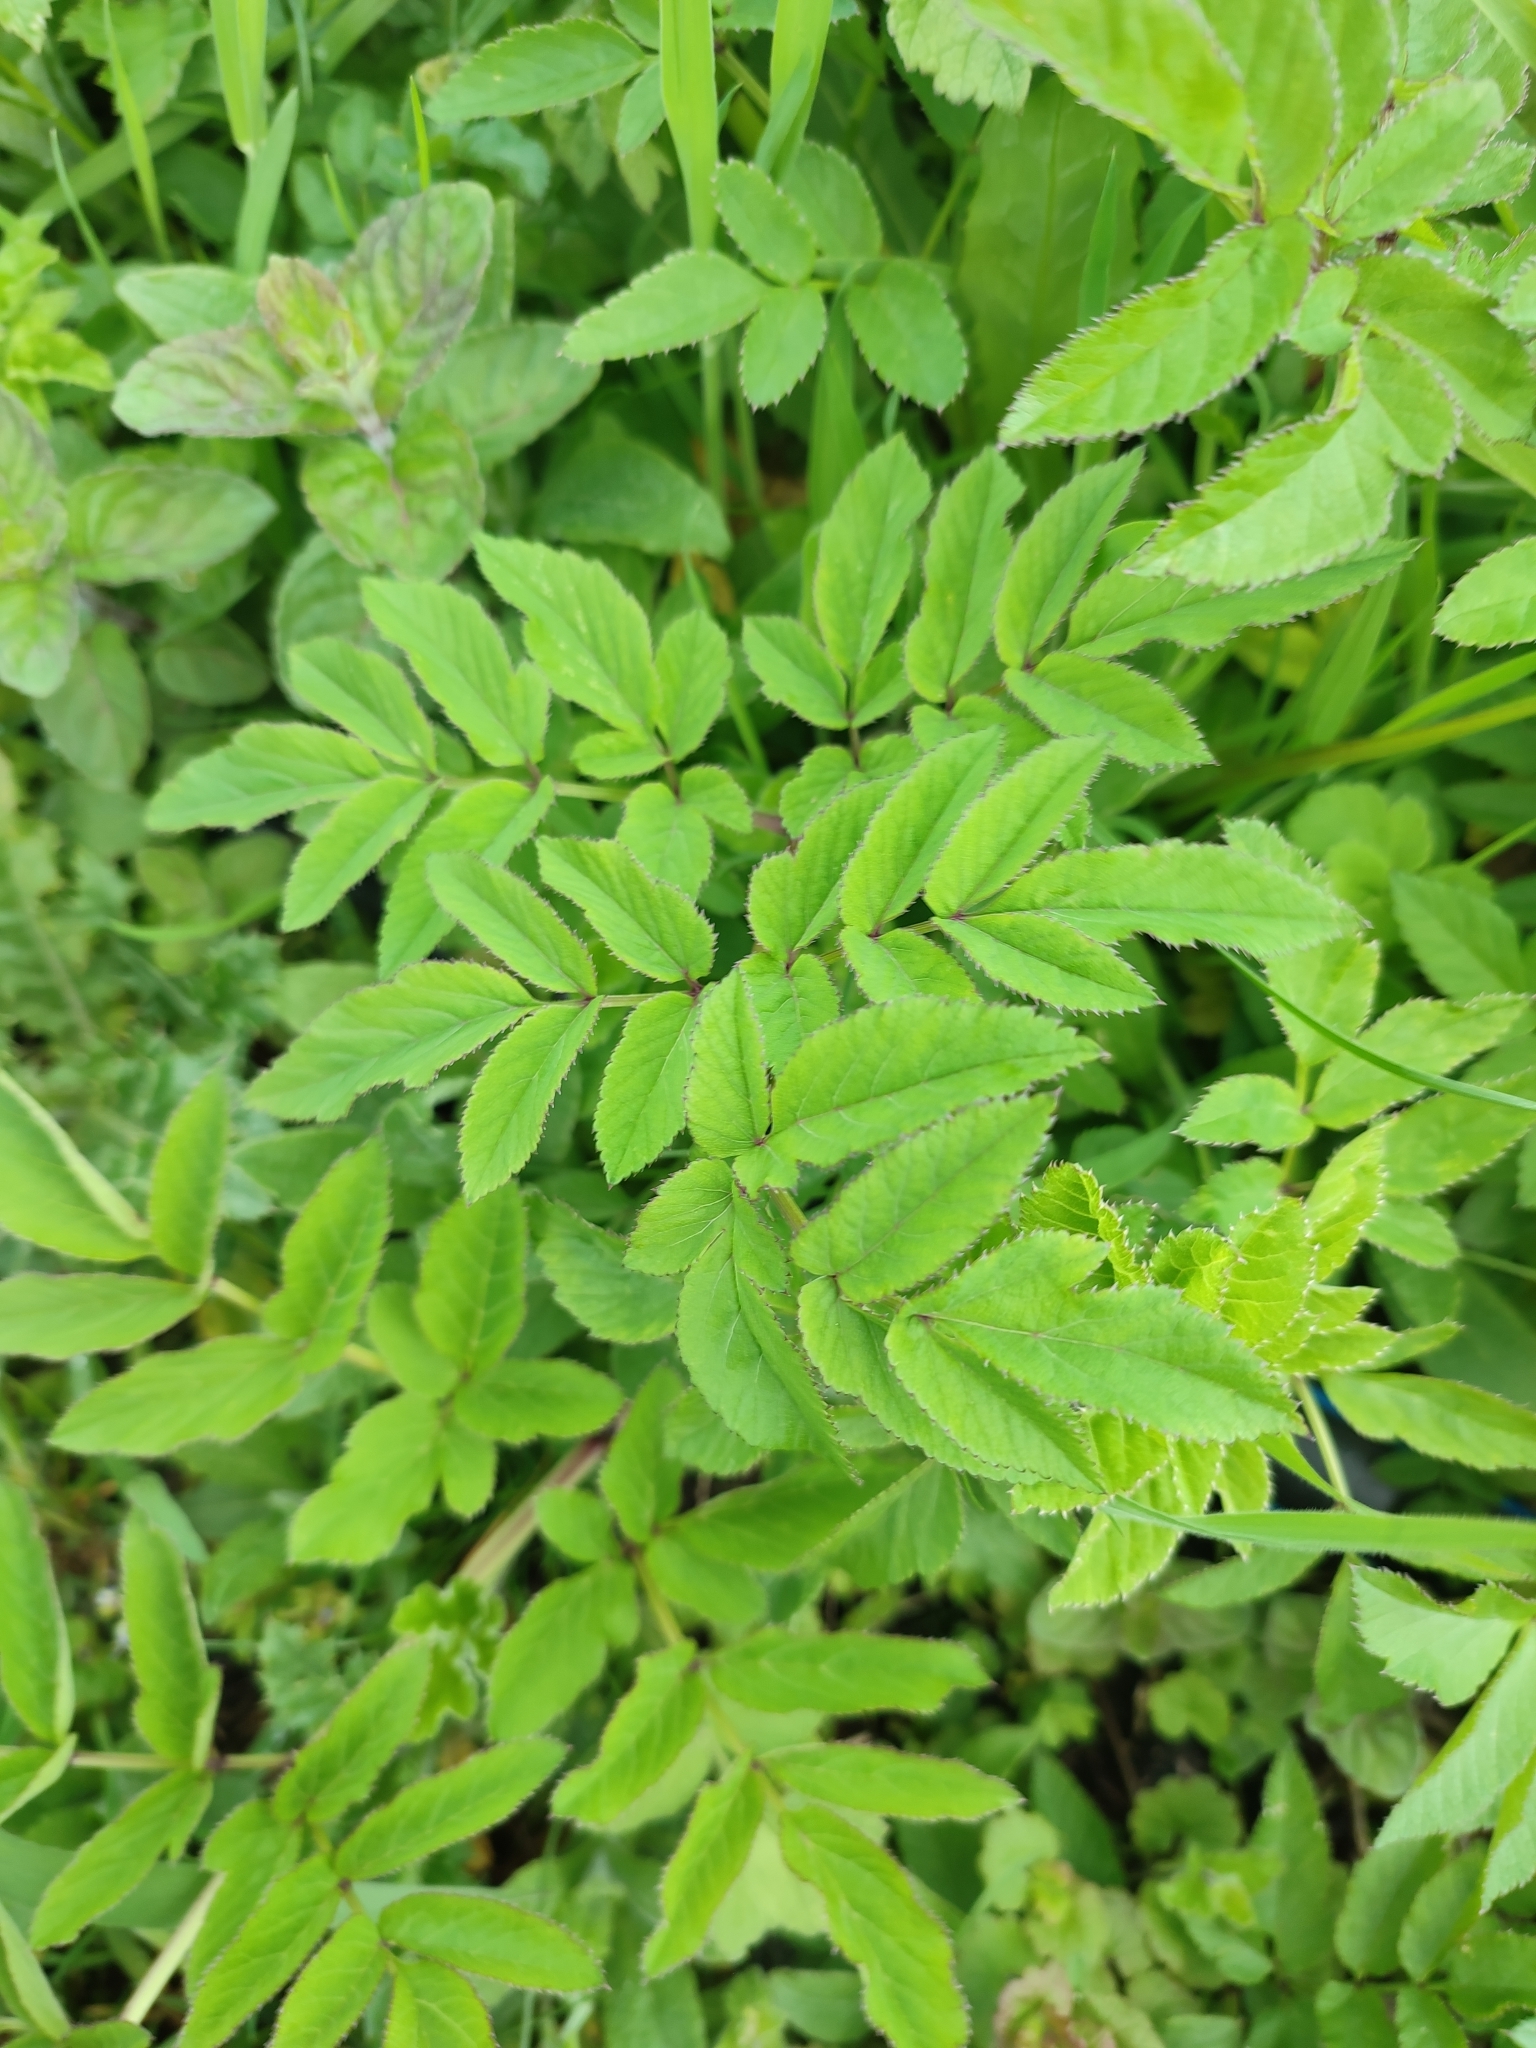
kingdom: Plantae
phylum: Tracheophyta
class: Magnoliopsida
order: Apiales
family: Apiaceae
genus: Angelica
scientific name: Angelica sylvestris
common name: Wild angelica
